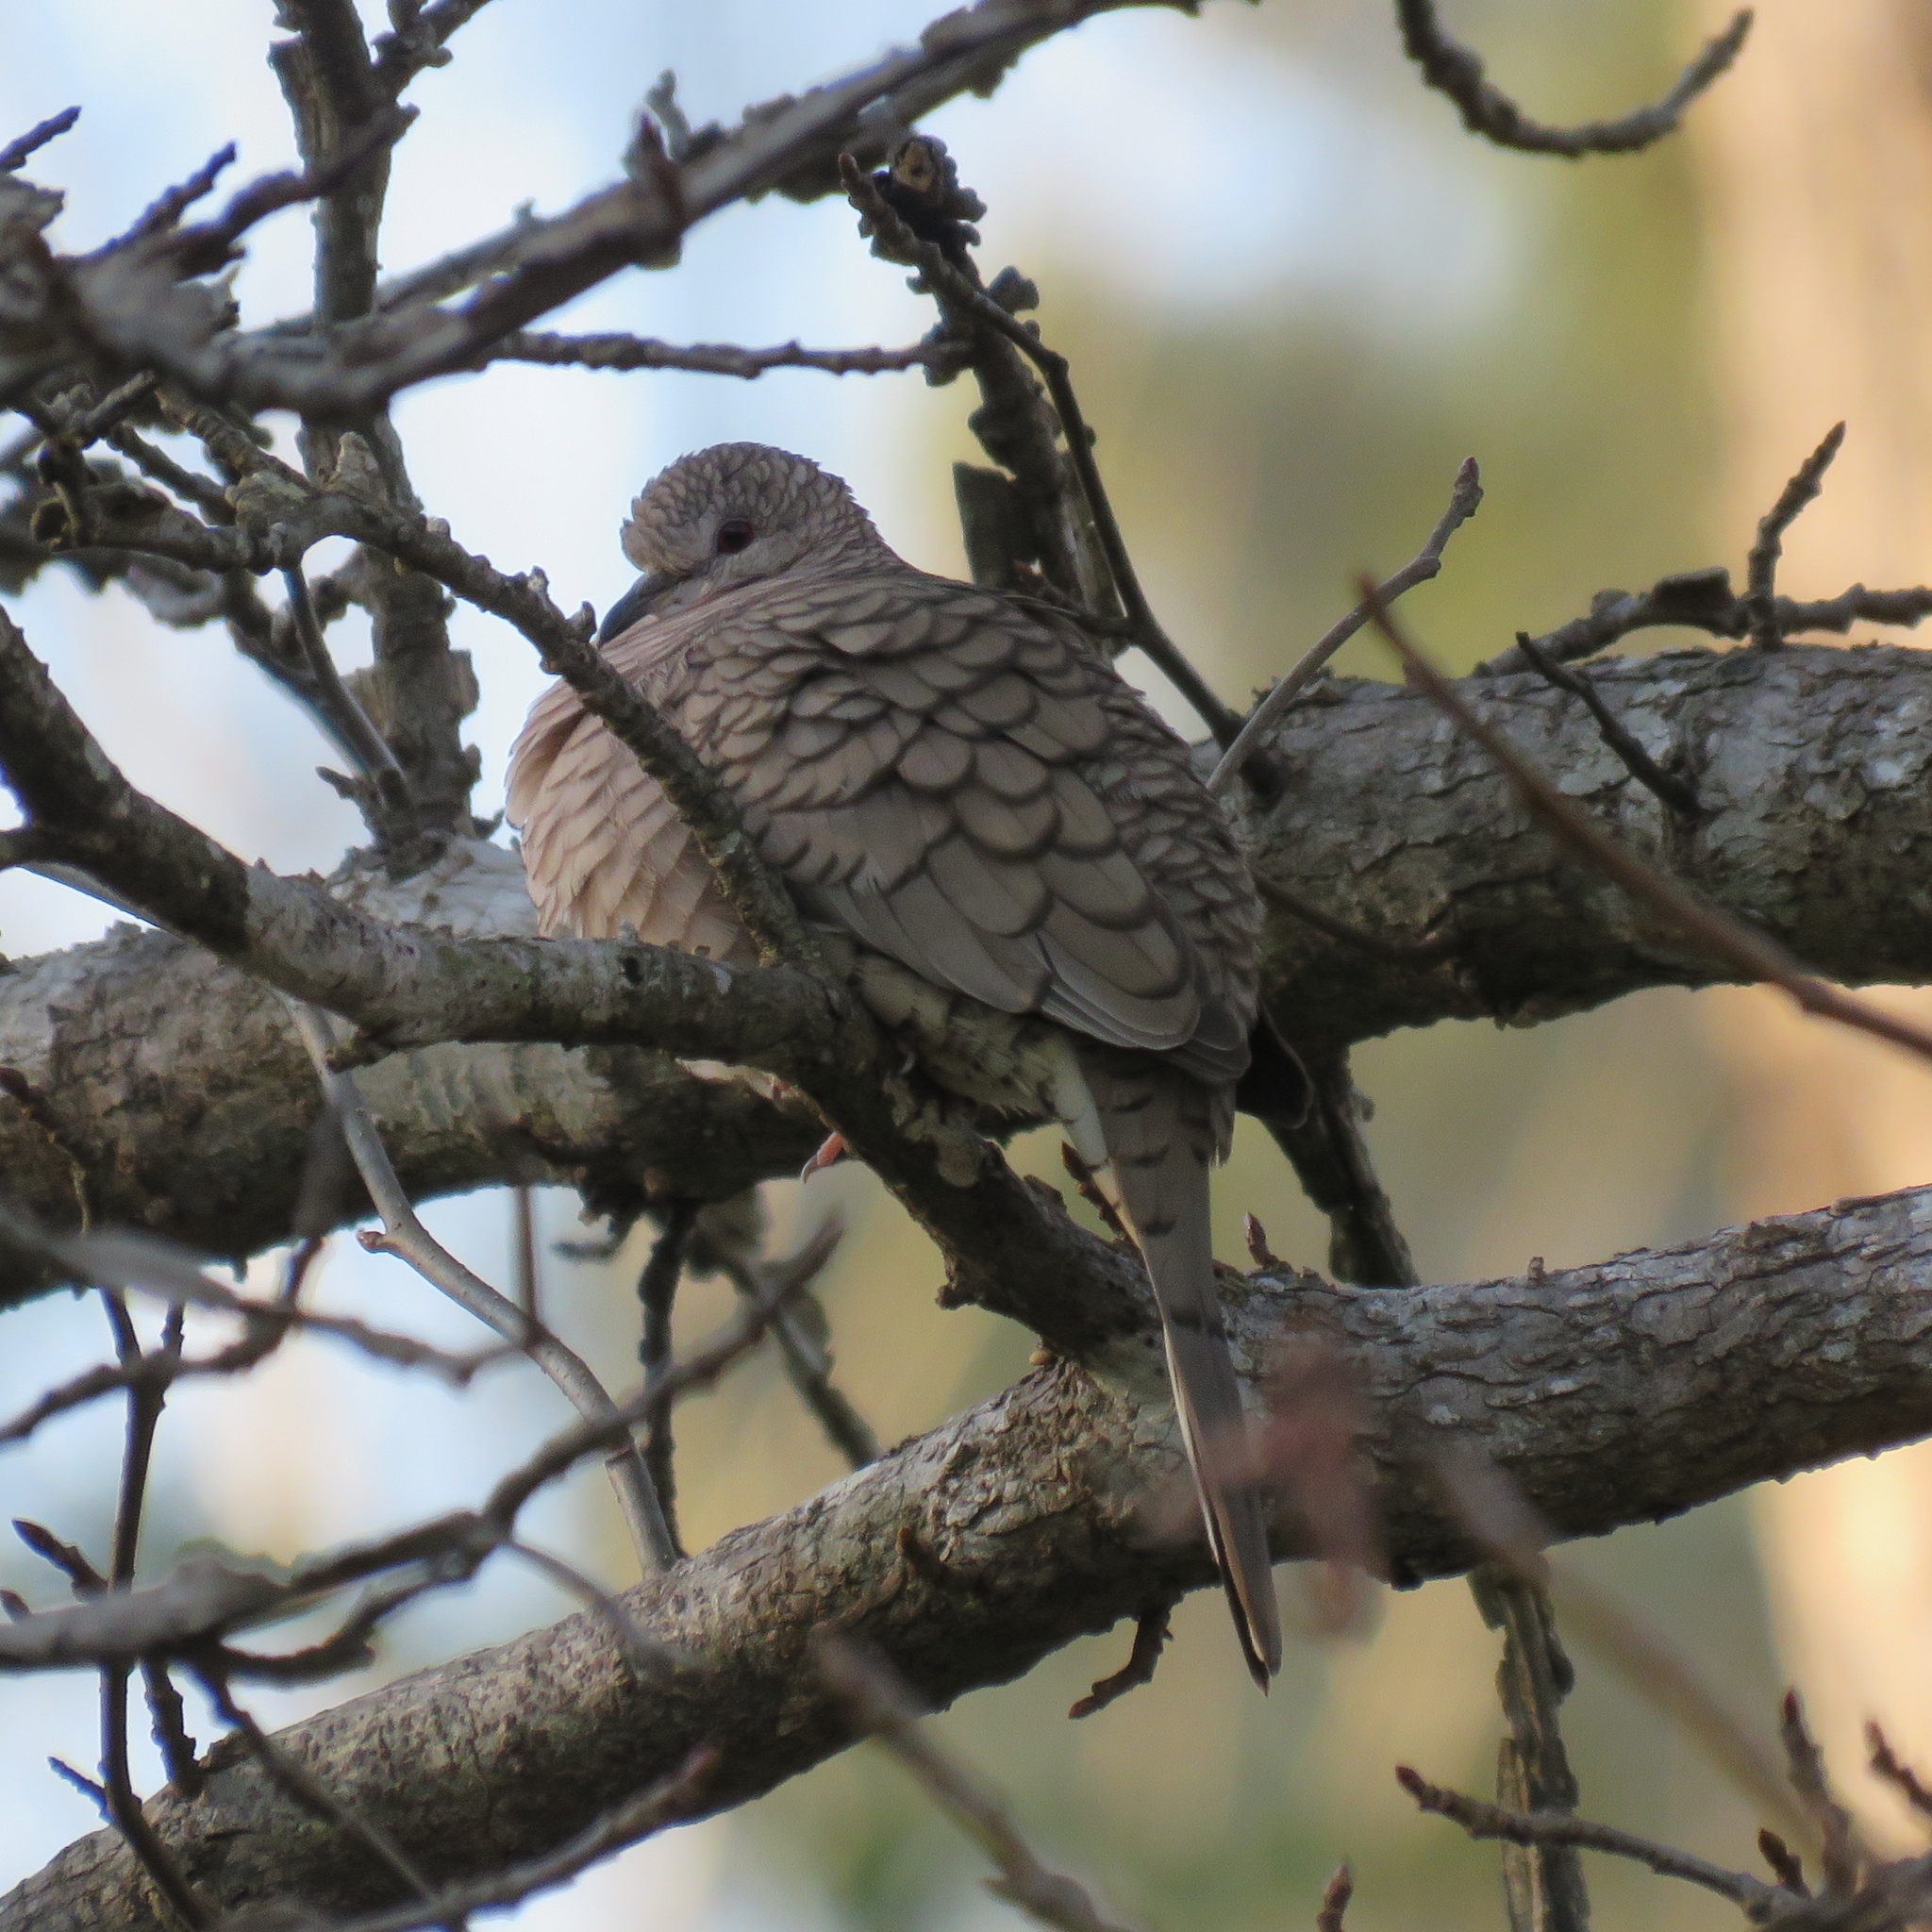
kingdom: Animalia
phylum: Chordata
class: Aves
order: Columbiformes
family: Columbidae
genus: Columbina
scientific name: Columbina inca
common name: Inca dove
